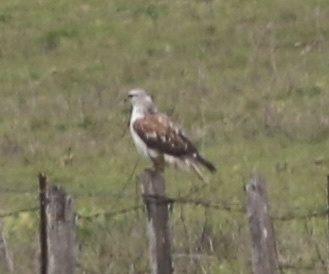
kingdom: Animalia
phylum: Chordata
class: Aves
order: Accipitriformes
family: Accipitridae
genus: Buteo
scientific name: Buteo regalis
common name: Ferruginous hawk
